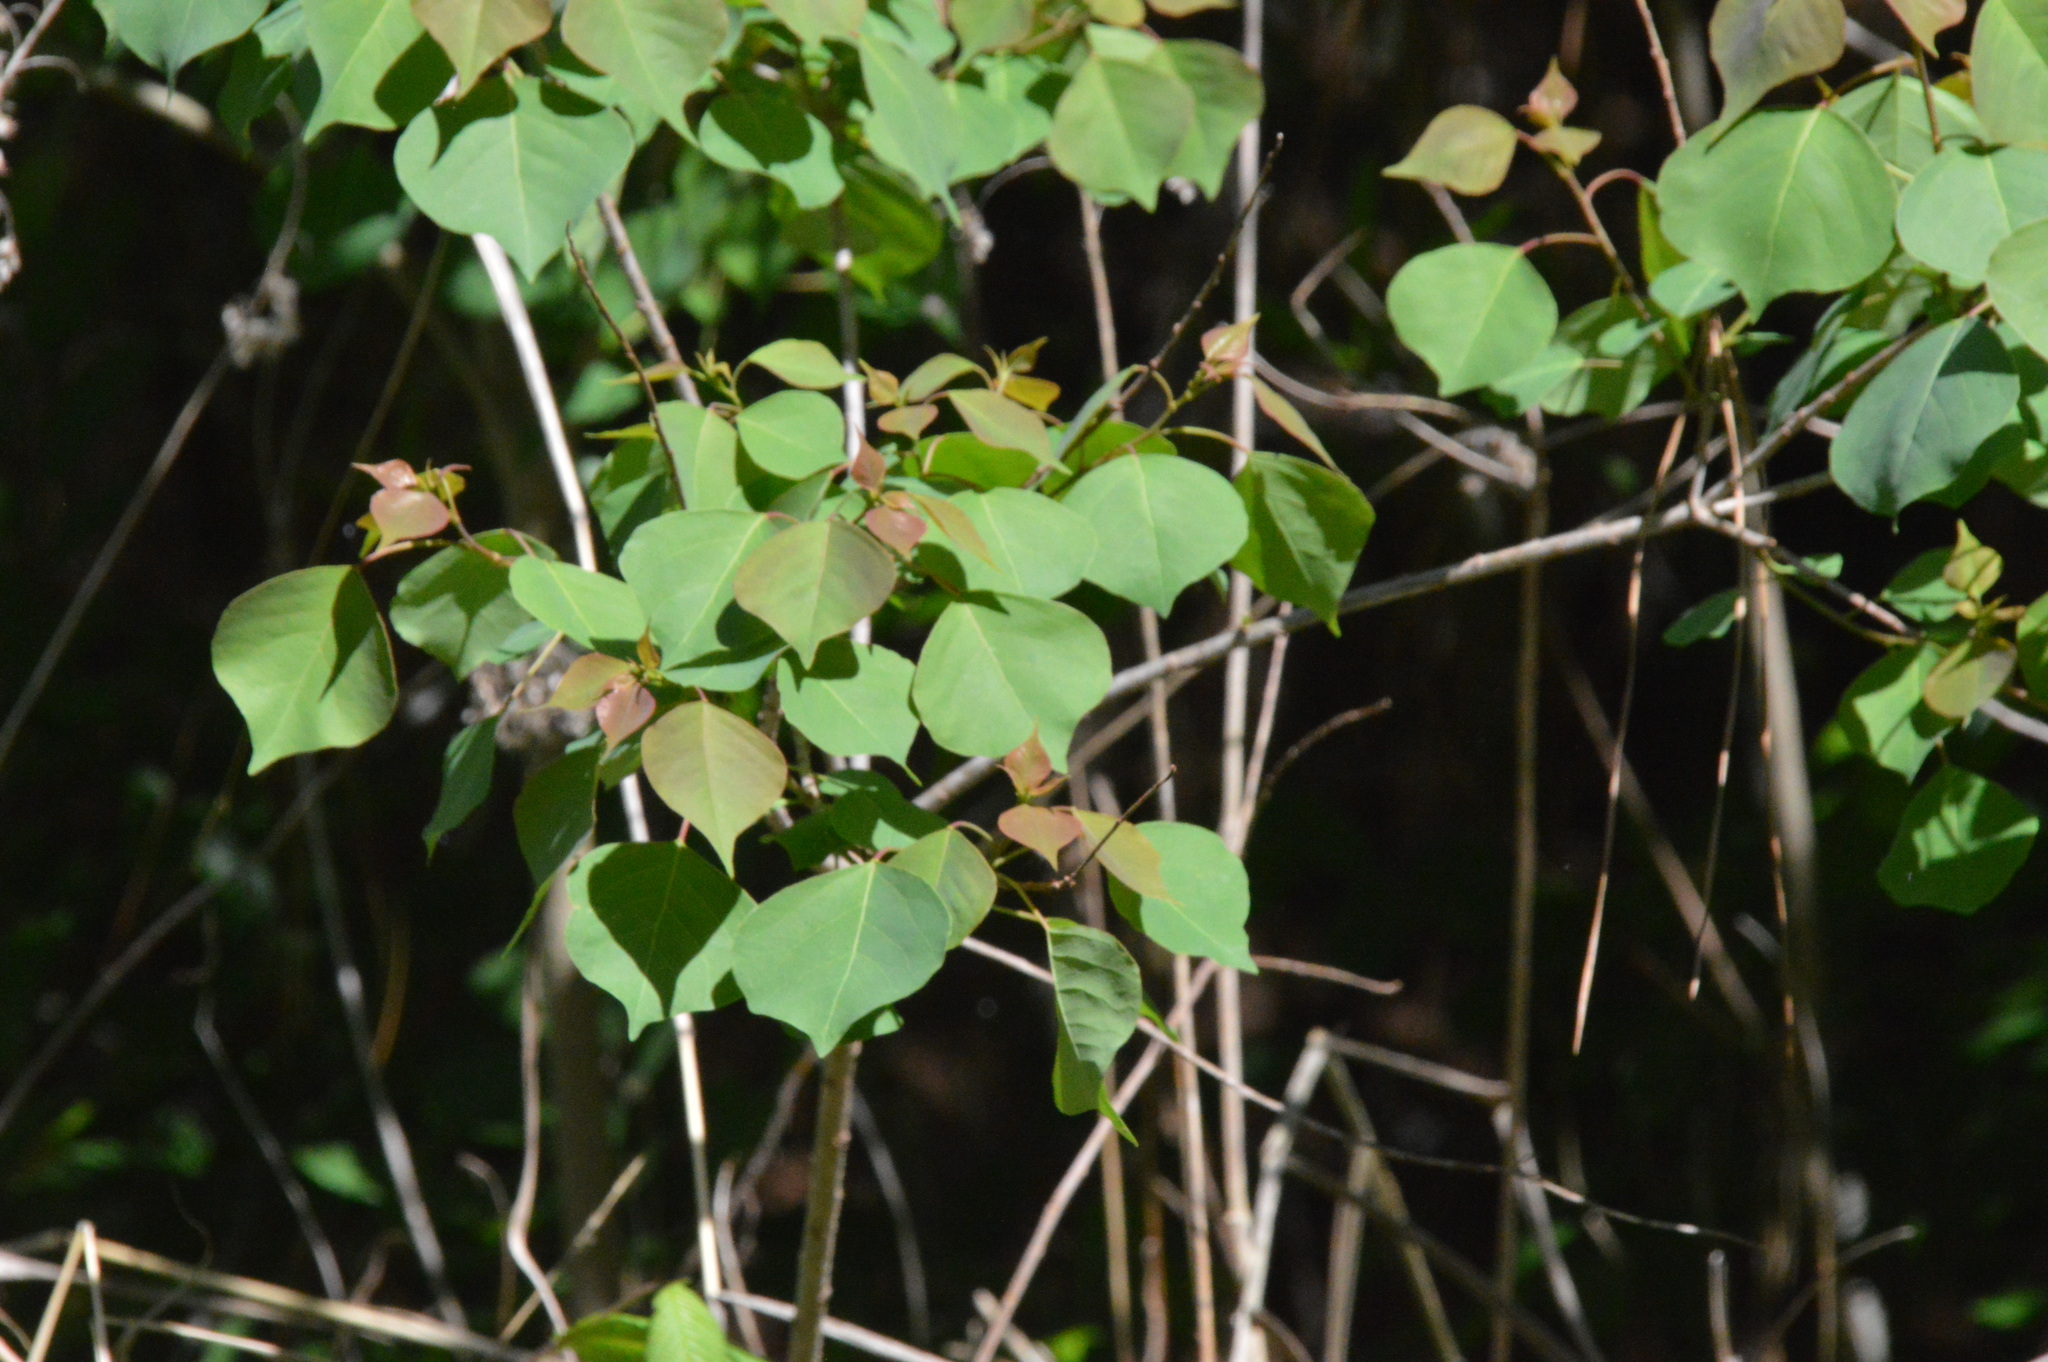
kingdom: Plantae
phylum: Tracheophyta
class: Magnoliopsida
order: Malpighiales
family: Euphorbiaceae
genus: Triadica
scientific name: Triadica sebifera
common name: Chinese tallow
